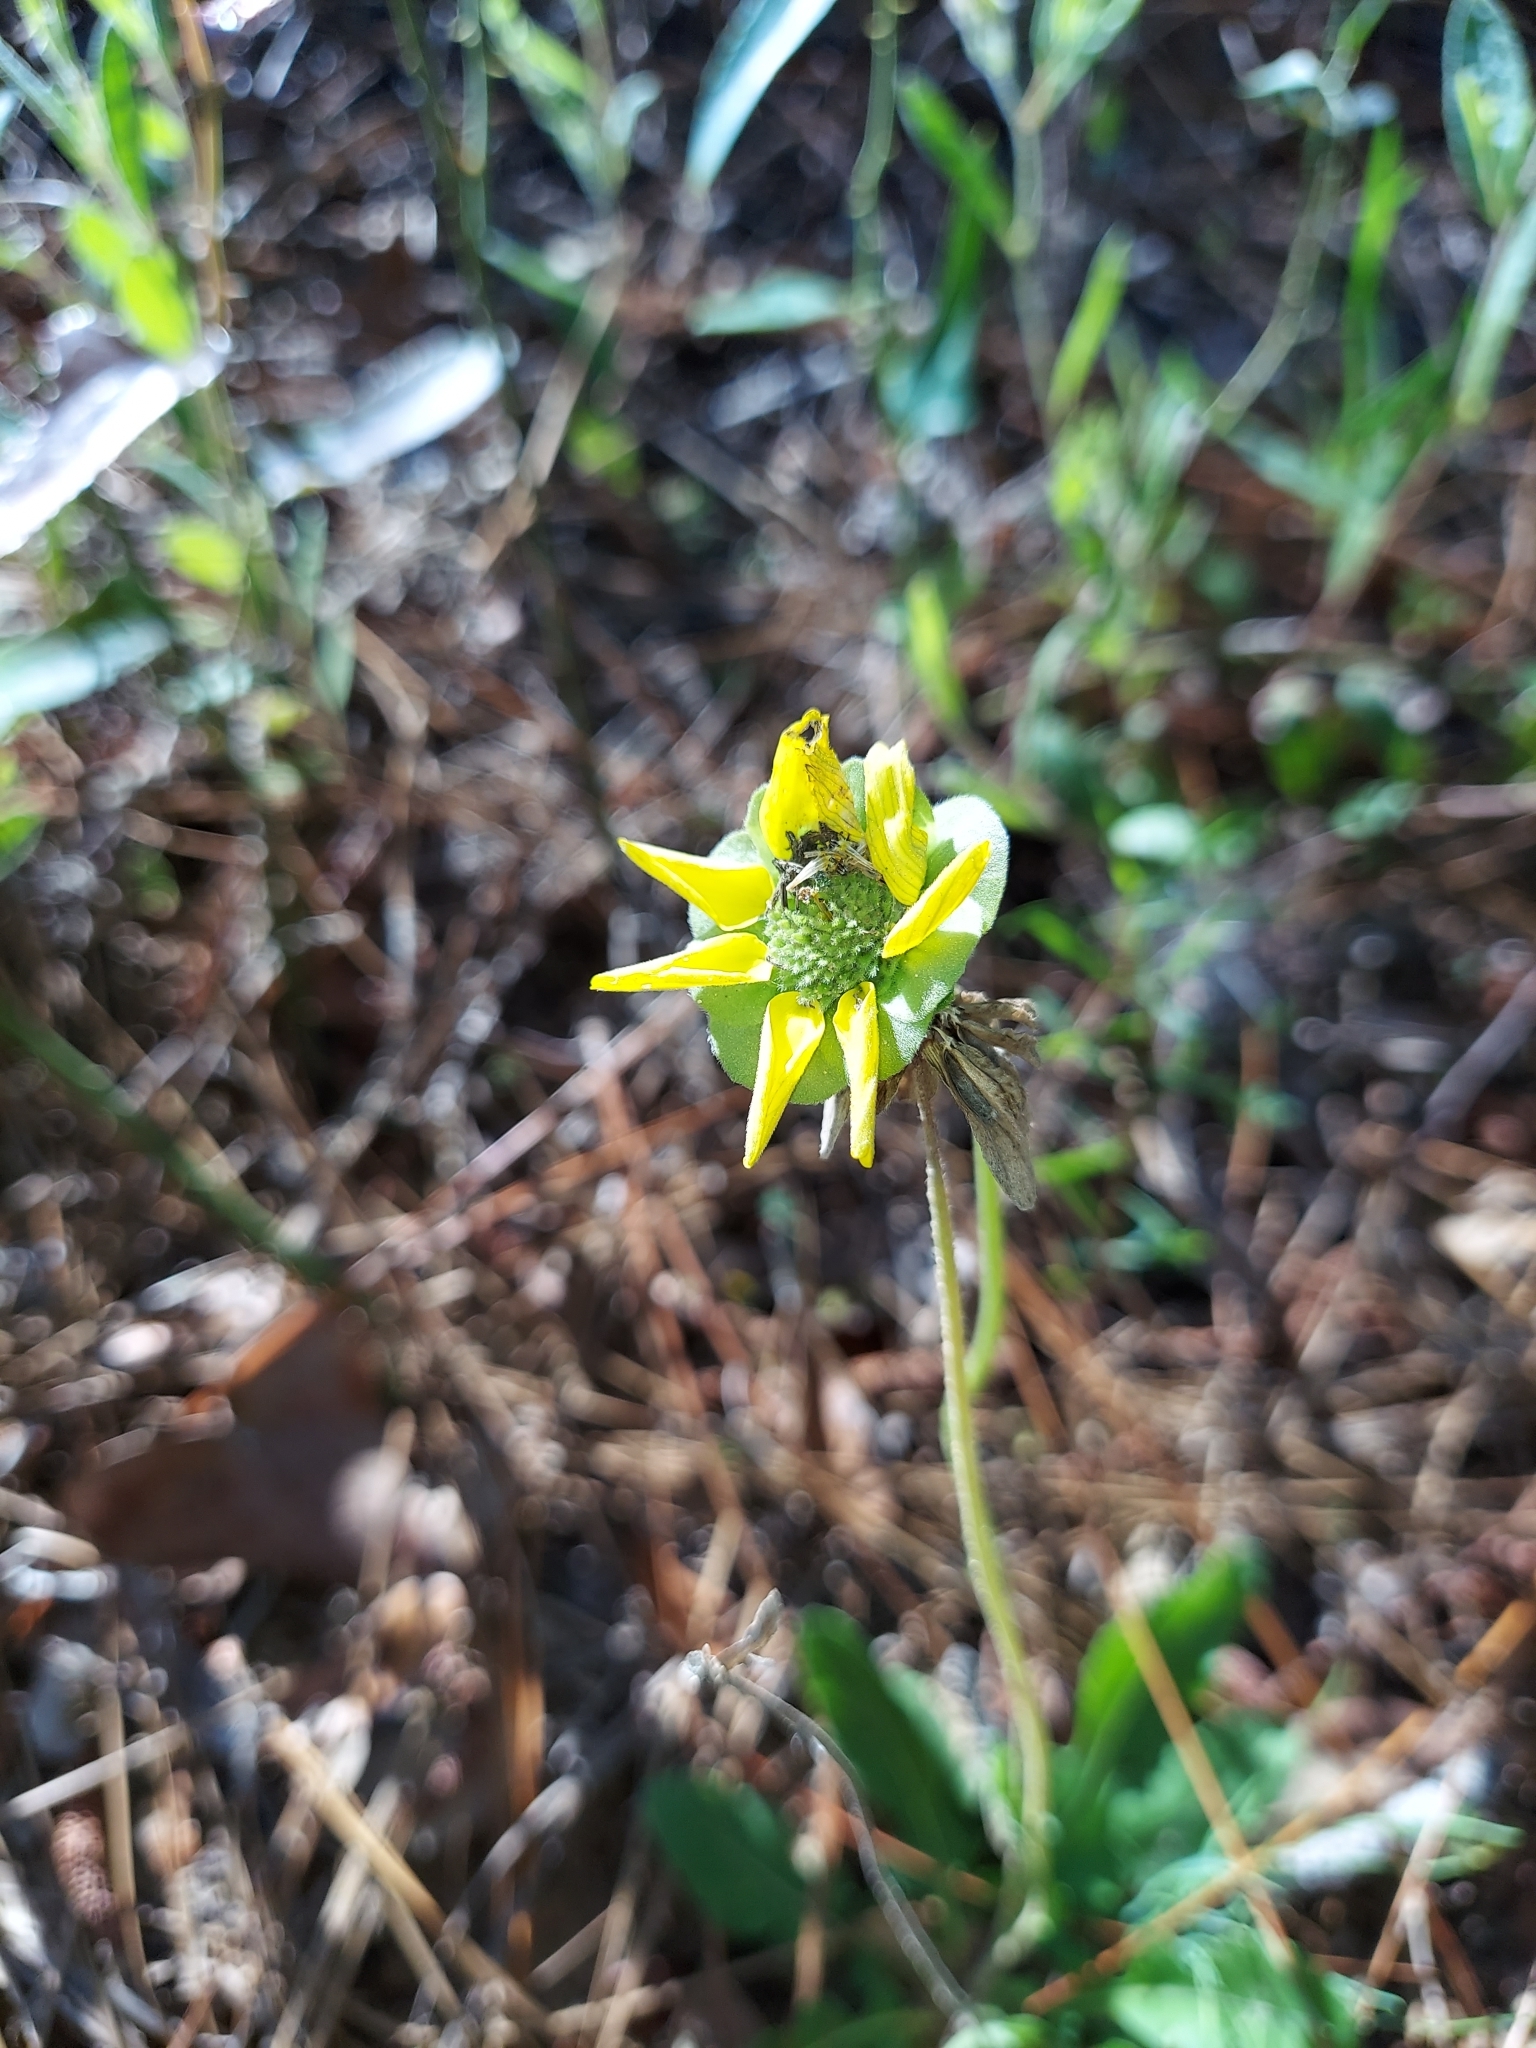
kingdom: Plantae
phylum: Tracheophyta
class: Magnoliopsida
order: Asterales
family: Asteraceae
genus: Berlandiera
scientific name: Berlandiera subacaulis
